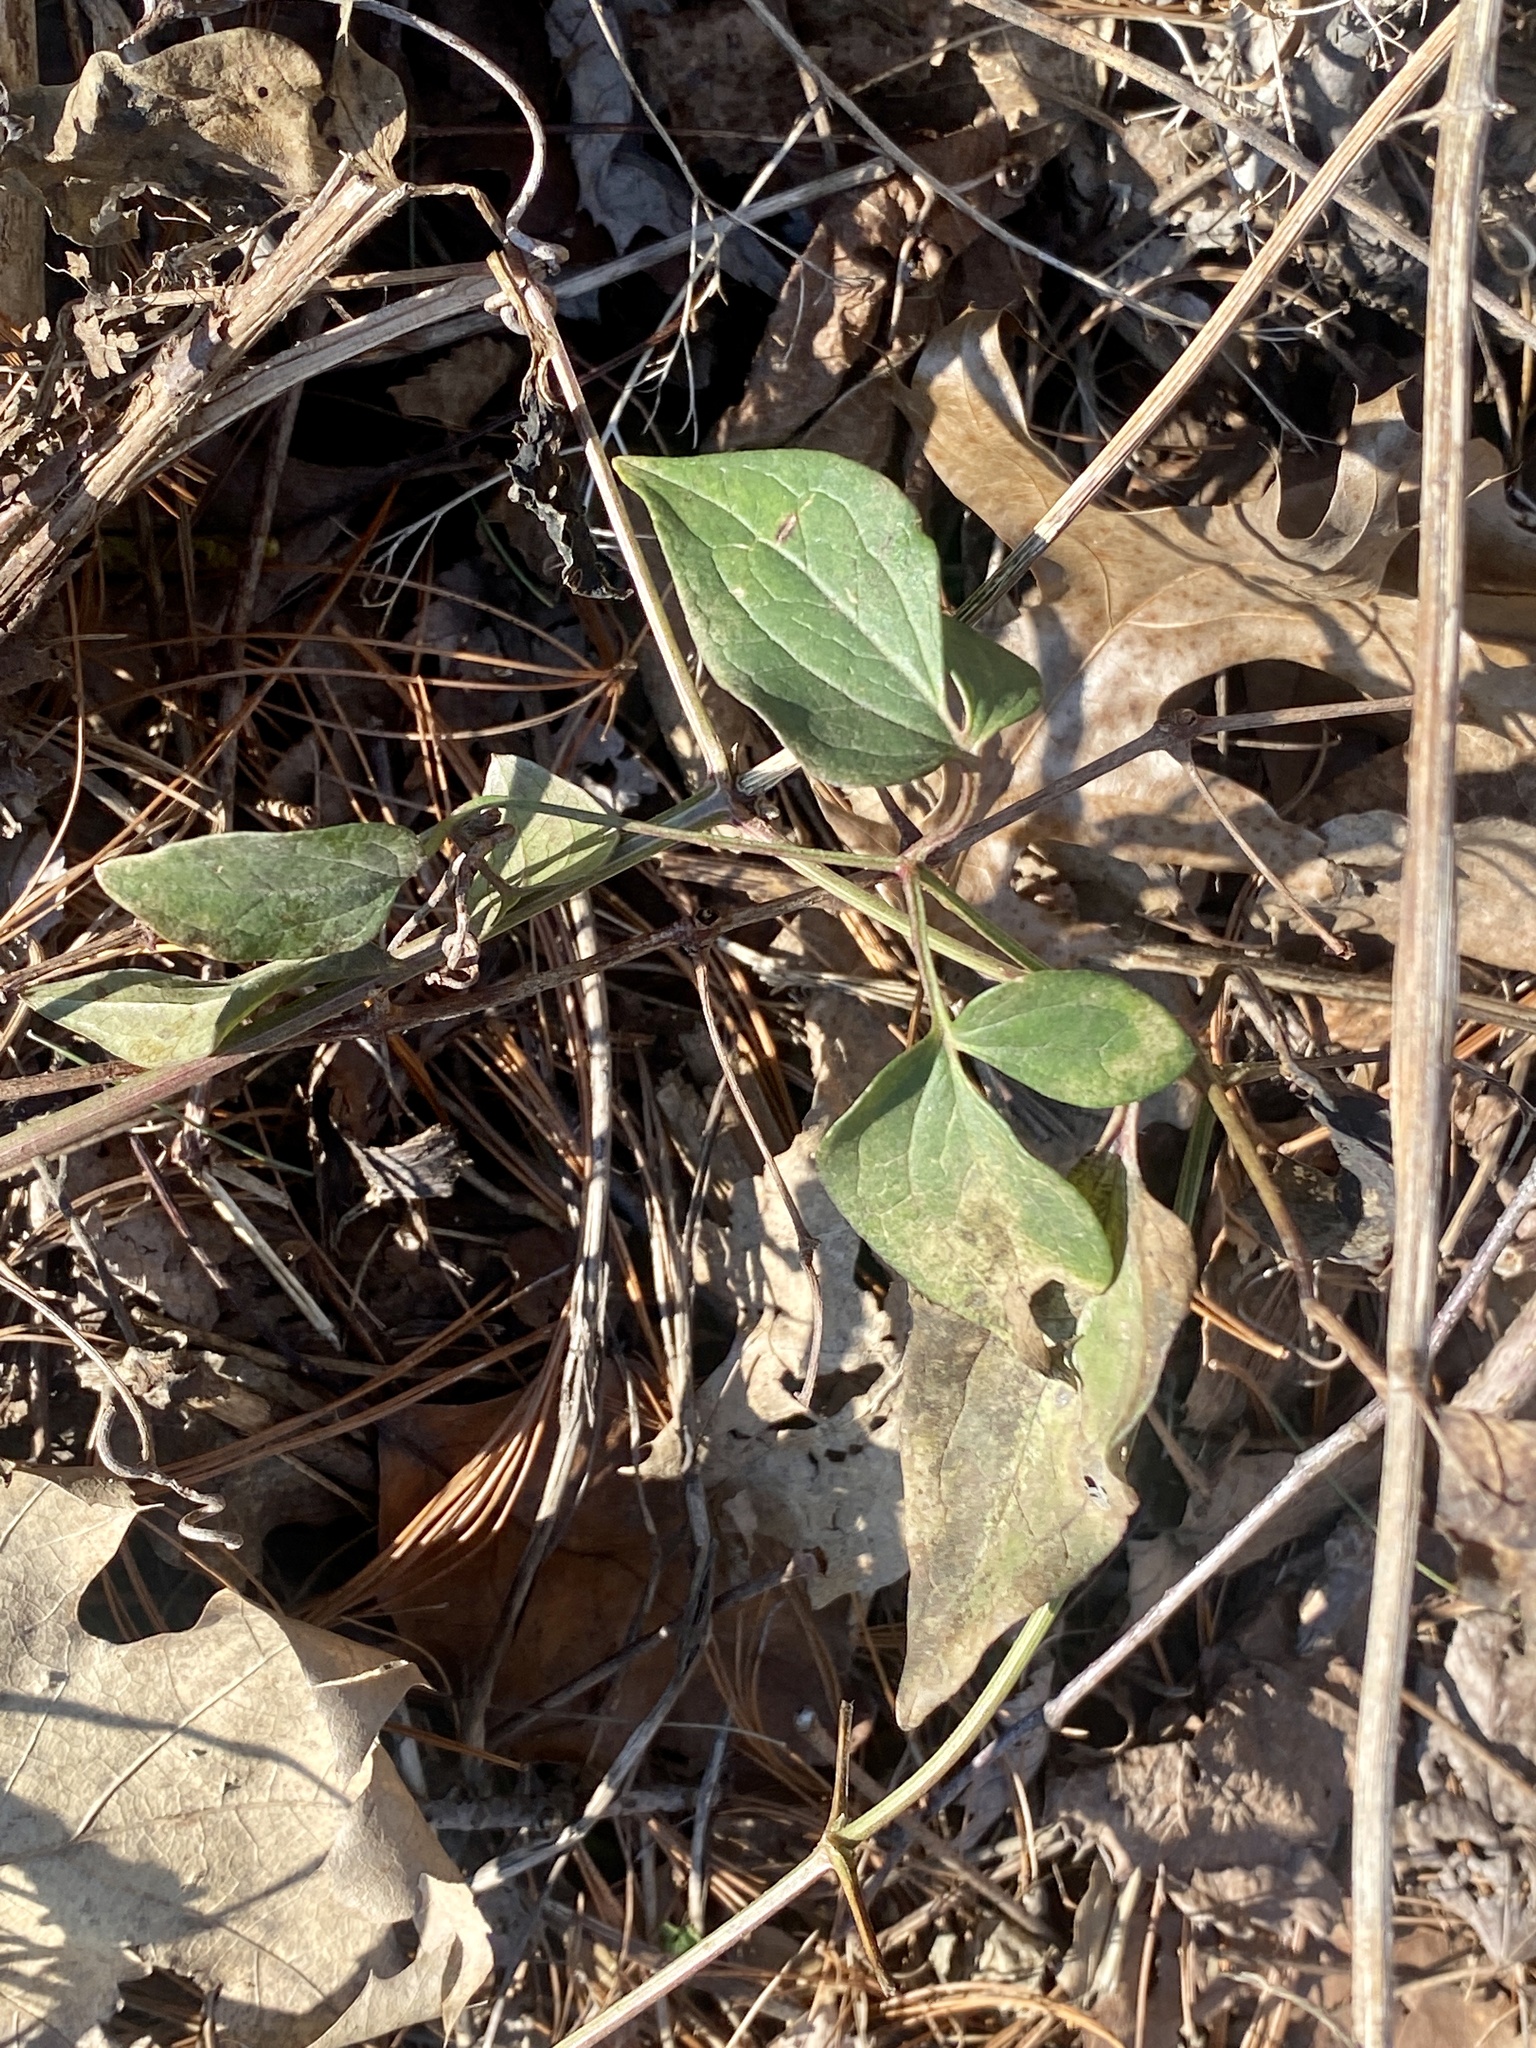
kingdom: Plantae
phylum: Tracheophyta
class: Magnoliopsida
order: Ranunculales
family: Ranunculaceae
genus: Clematis
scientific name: Clematis terniflora
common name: Sweet autumn clematis
